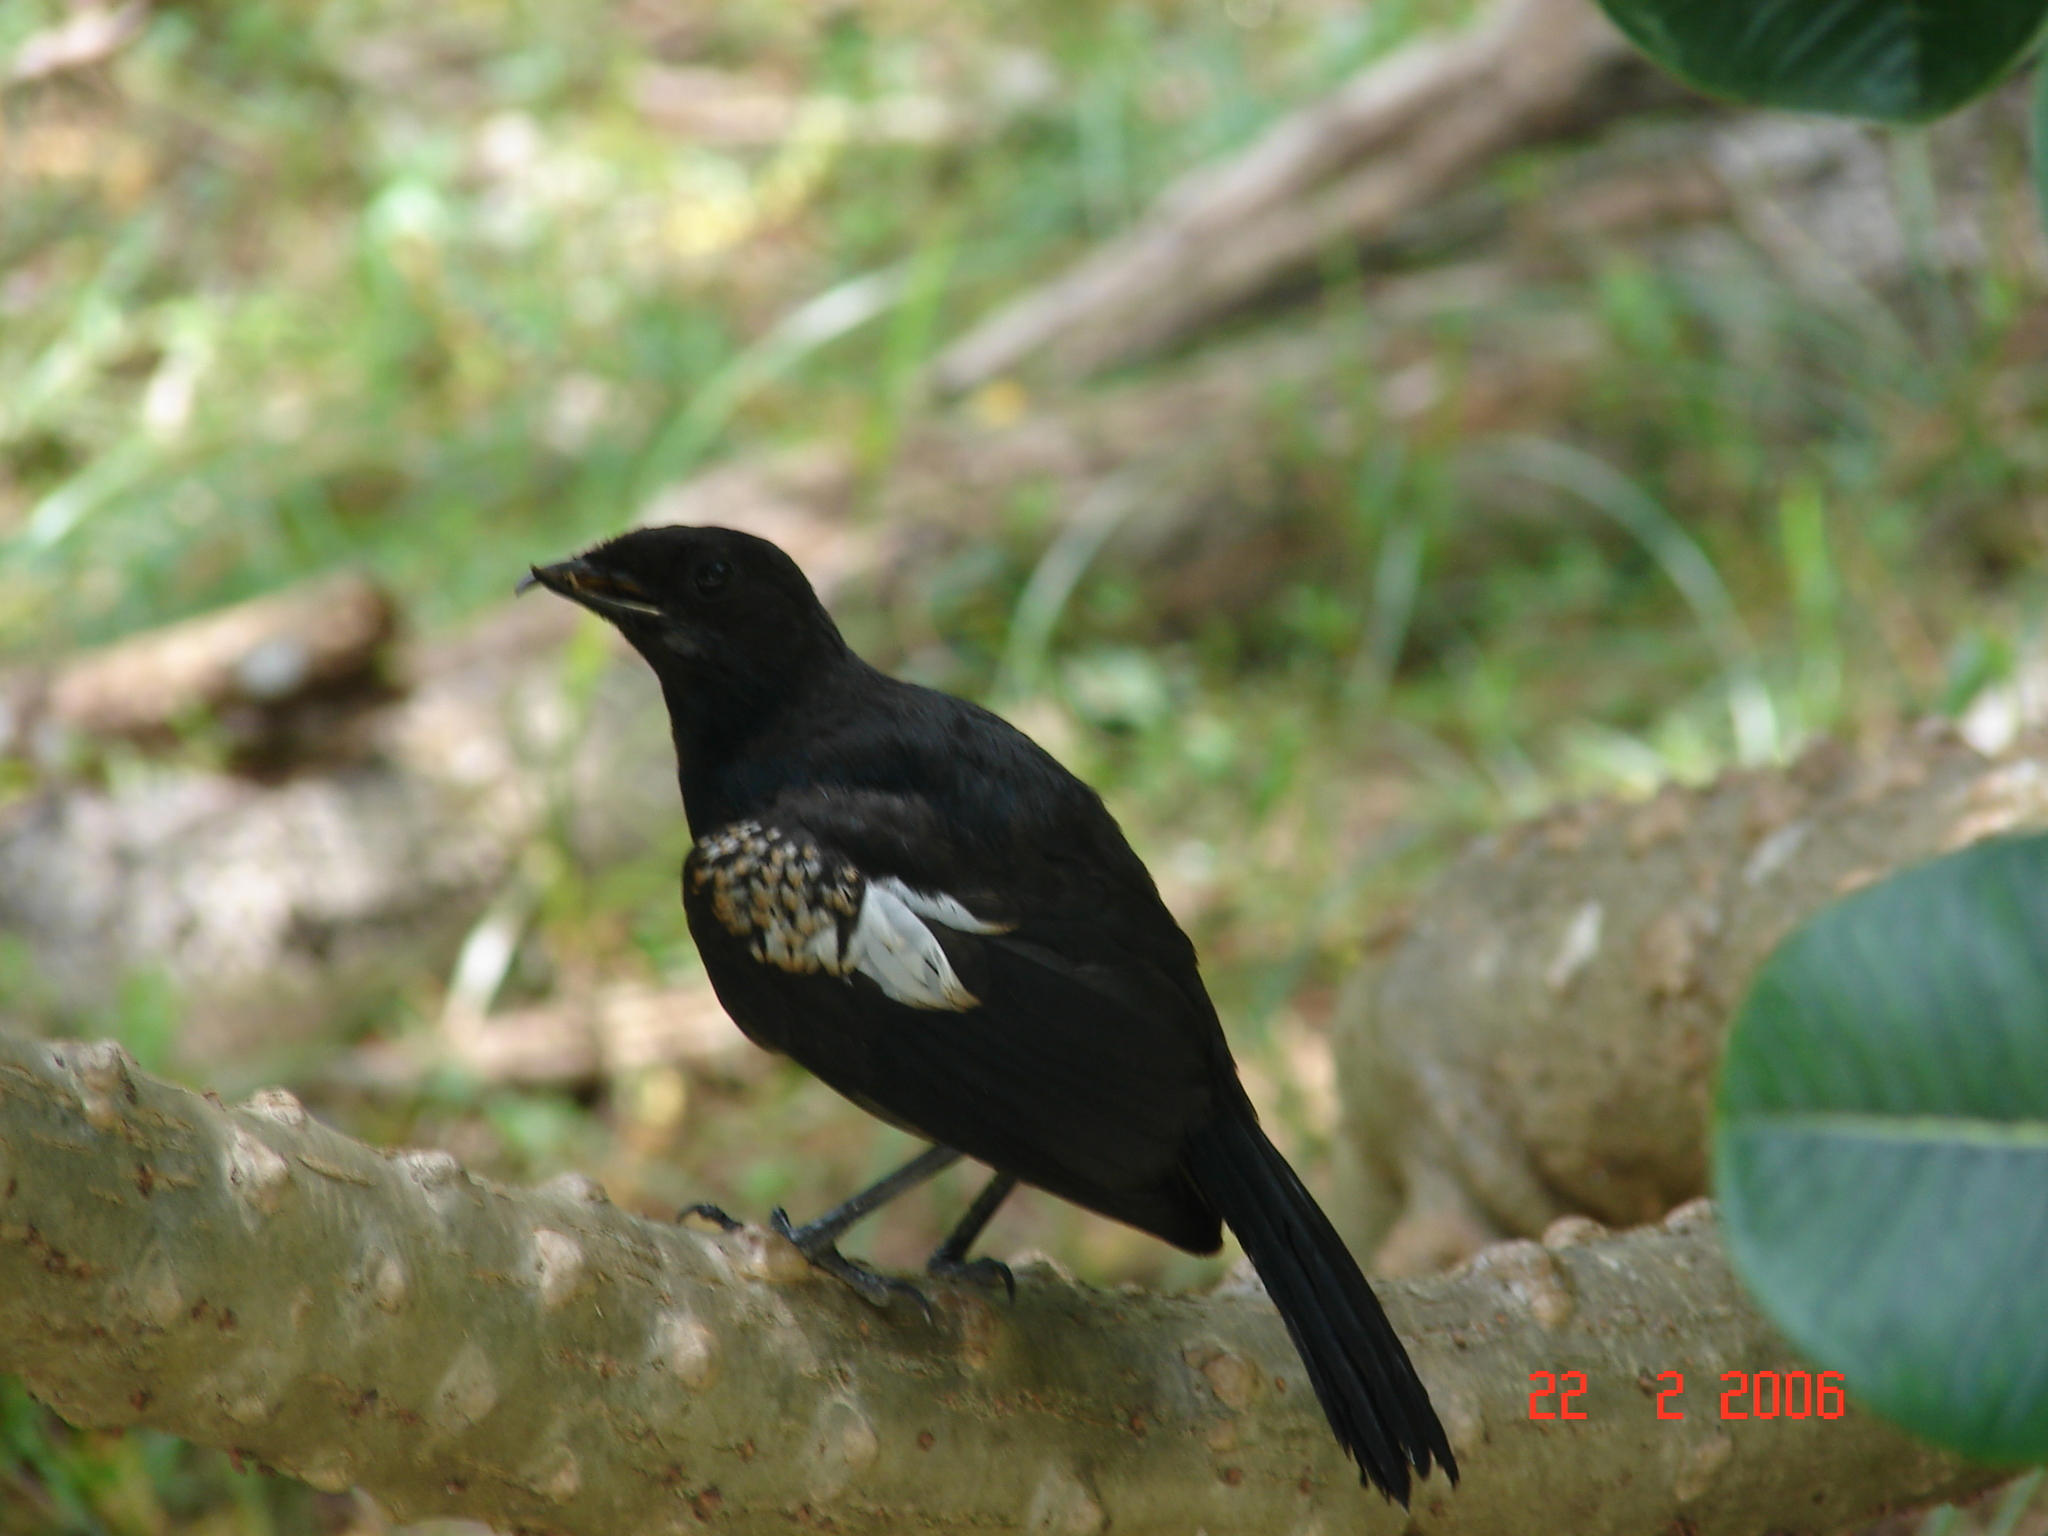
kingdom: Animalia
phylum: Chordata
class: Aves
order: Passeriformes
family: Muscicapidae
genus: Copsychus
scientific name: Copsychus sechellarum
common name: Seychelles magpie-robin
